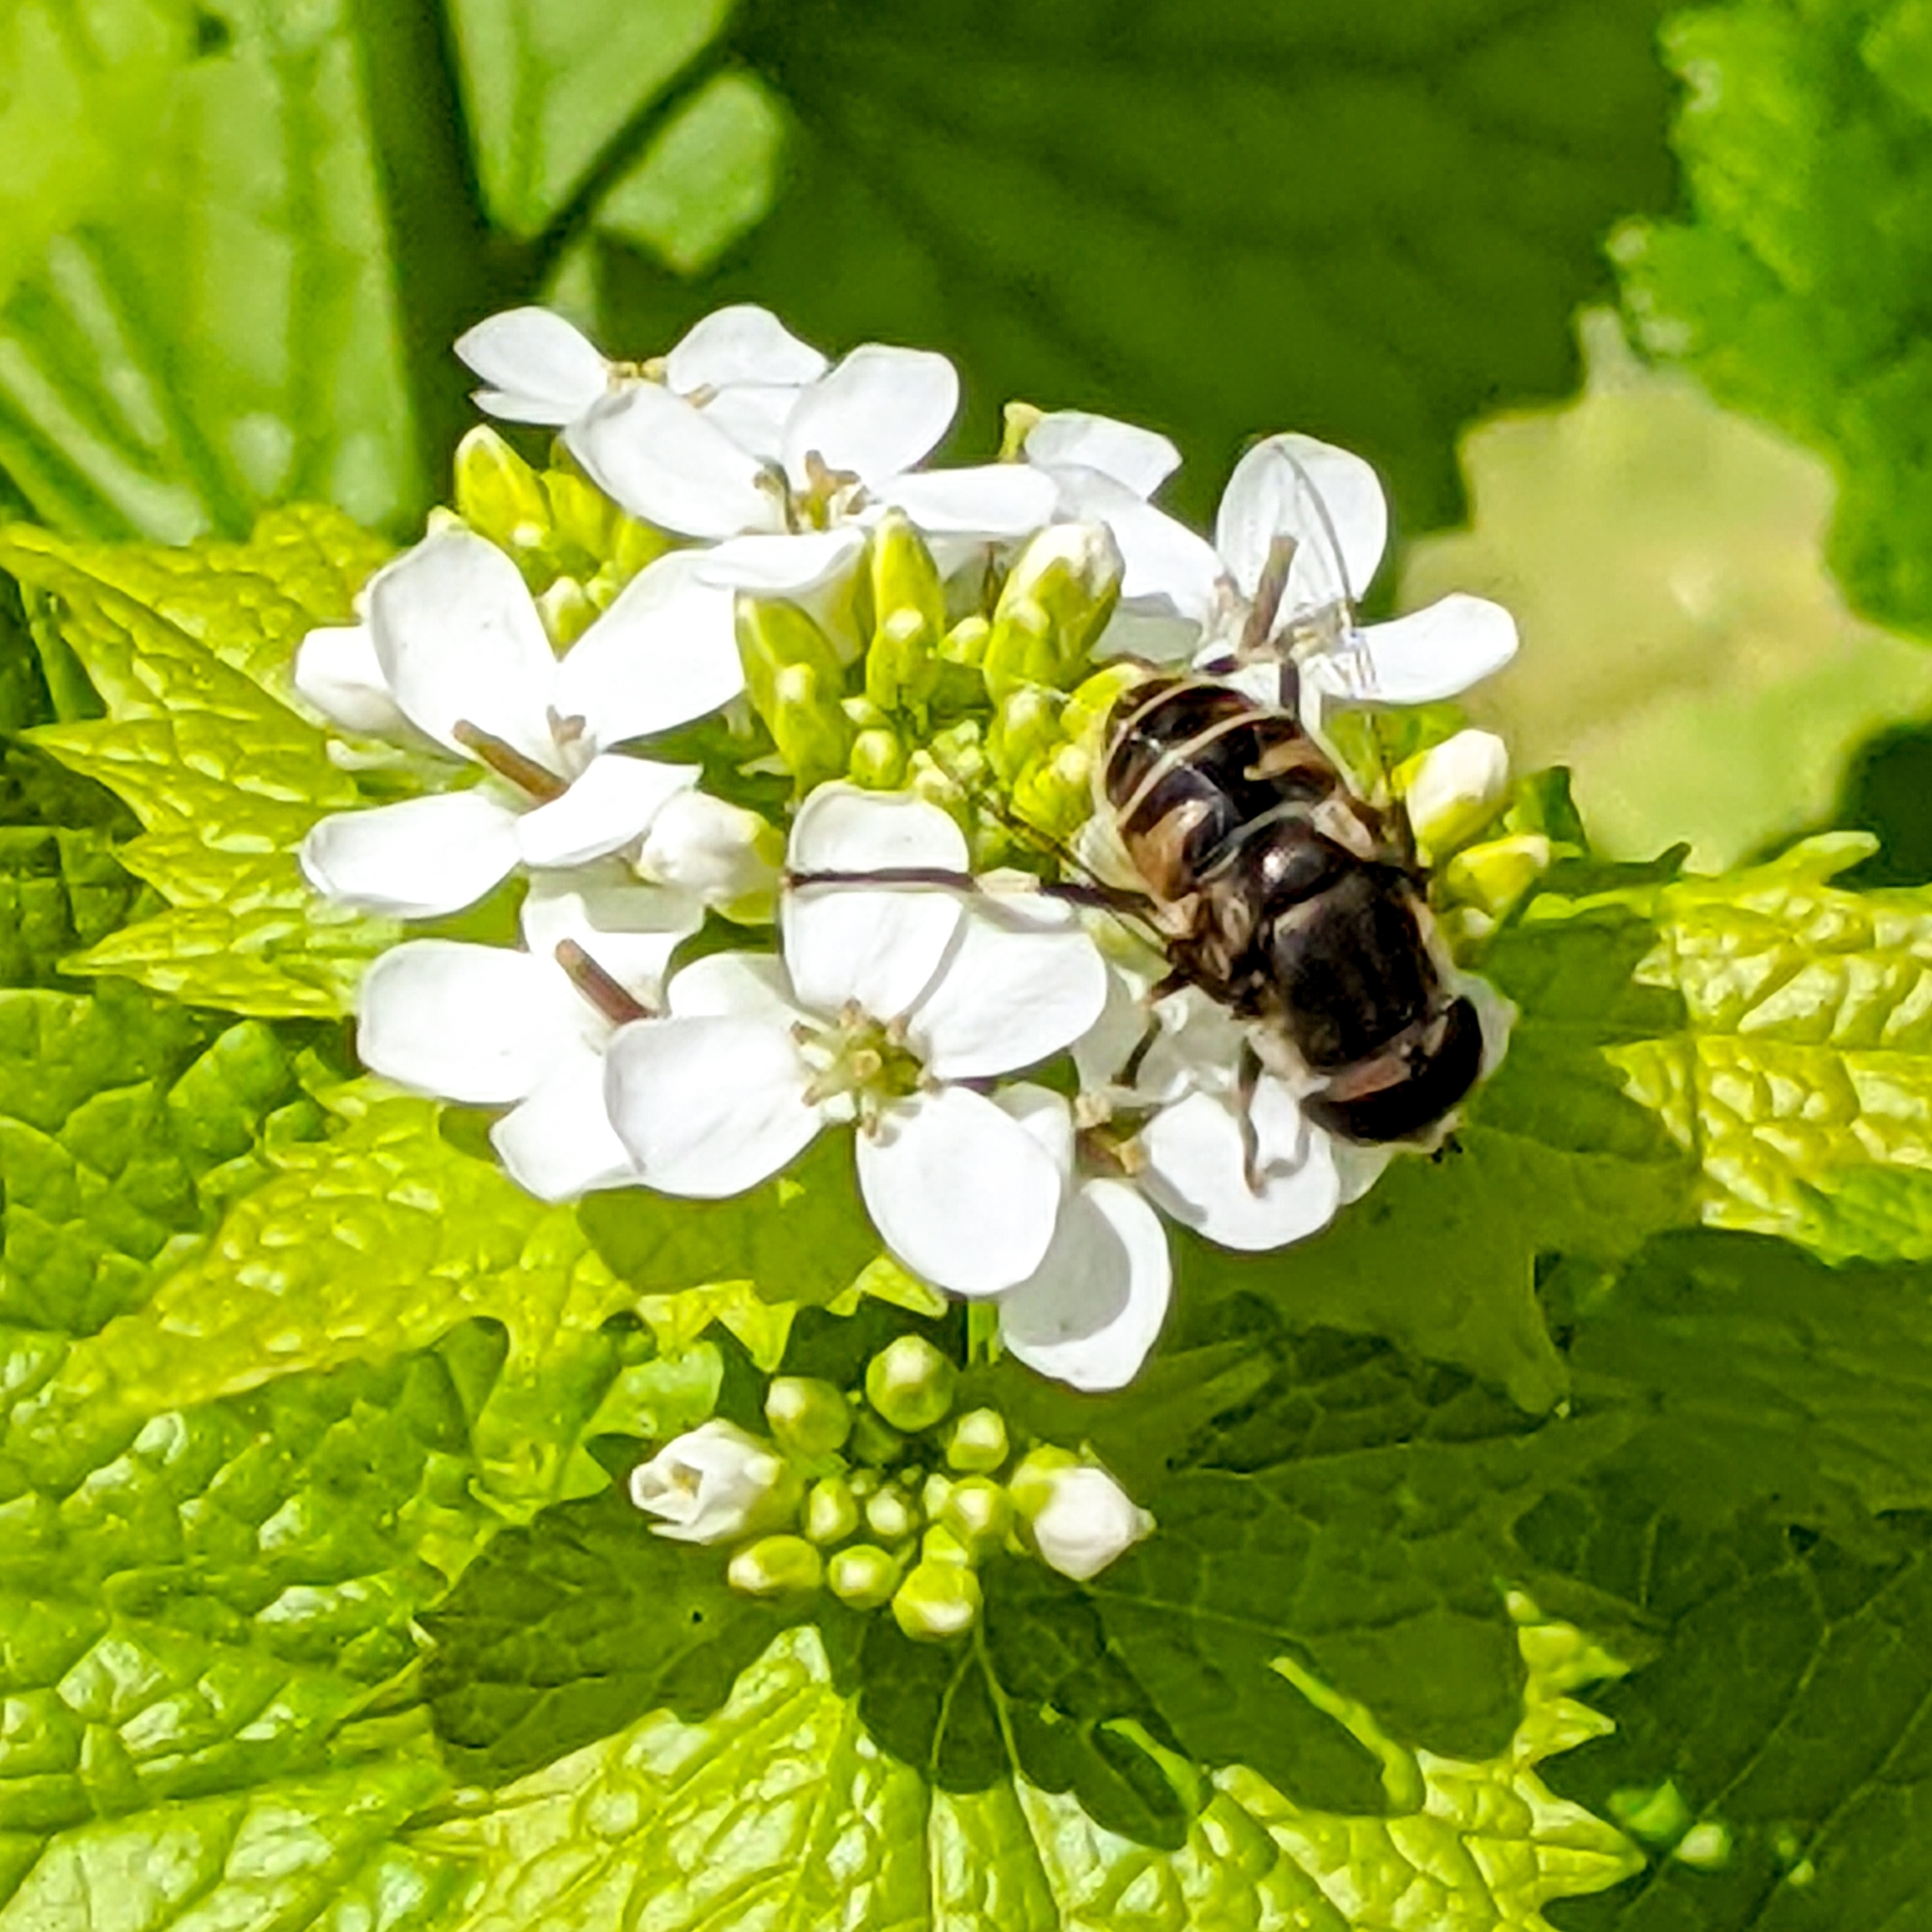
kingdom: Animalia
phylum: Arthropoda
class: Insecta
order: Diptera
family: Syrphidae
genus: Eristalis
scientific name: Eristalis dimidiata
